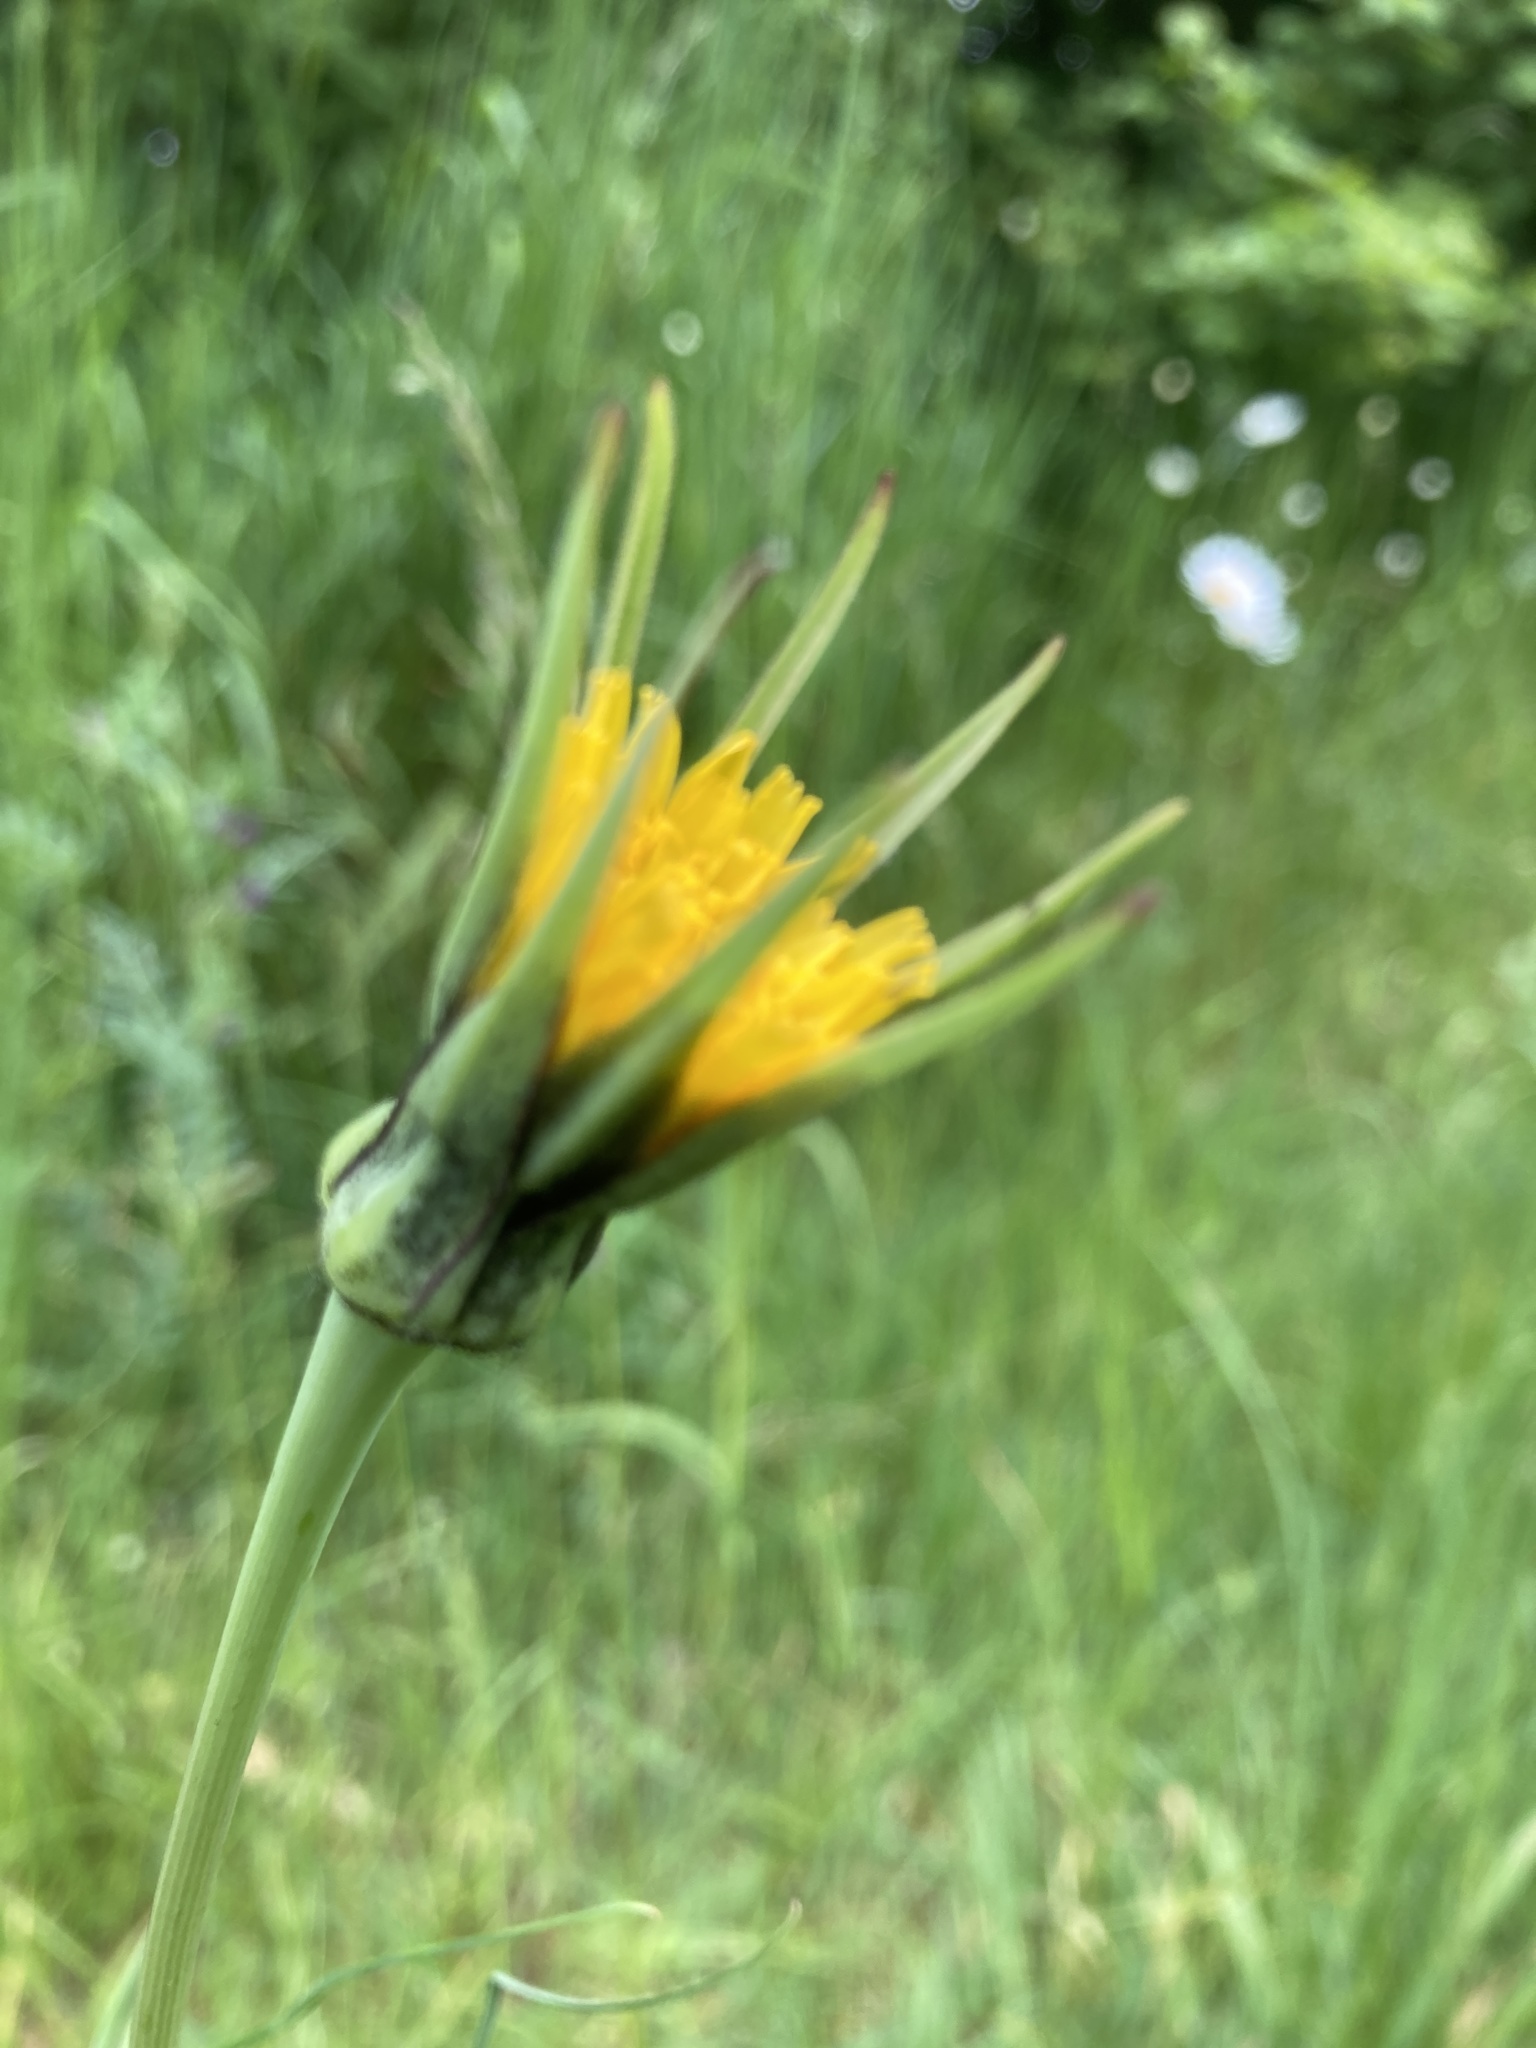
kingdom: Plantae
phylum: Tracheophyta
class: Magnoliopsida
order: Asterales
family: Asteraceae
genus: Tragopogon
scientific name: Tragopogon pratensis
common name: Goat's-beard
